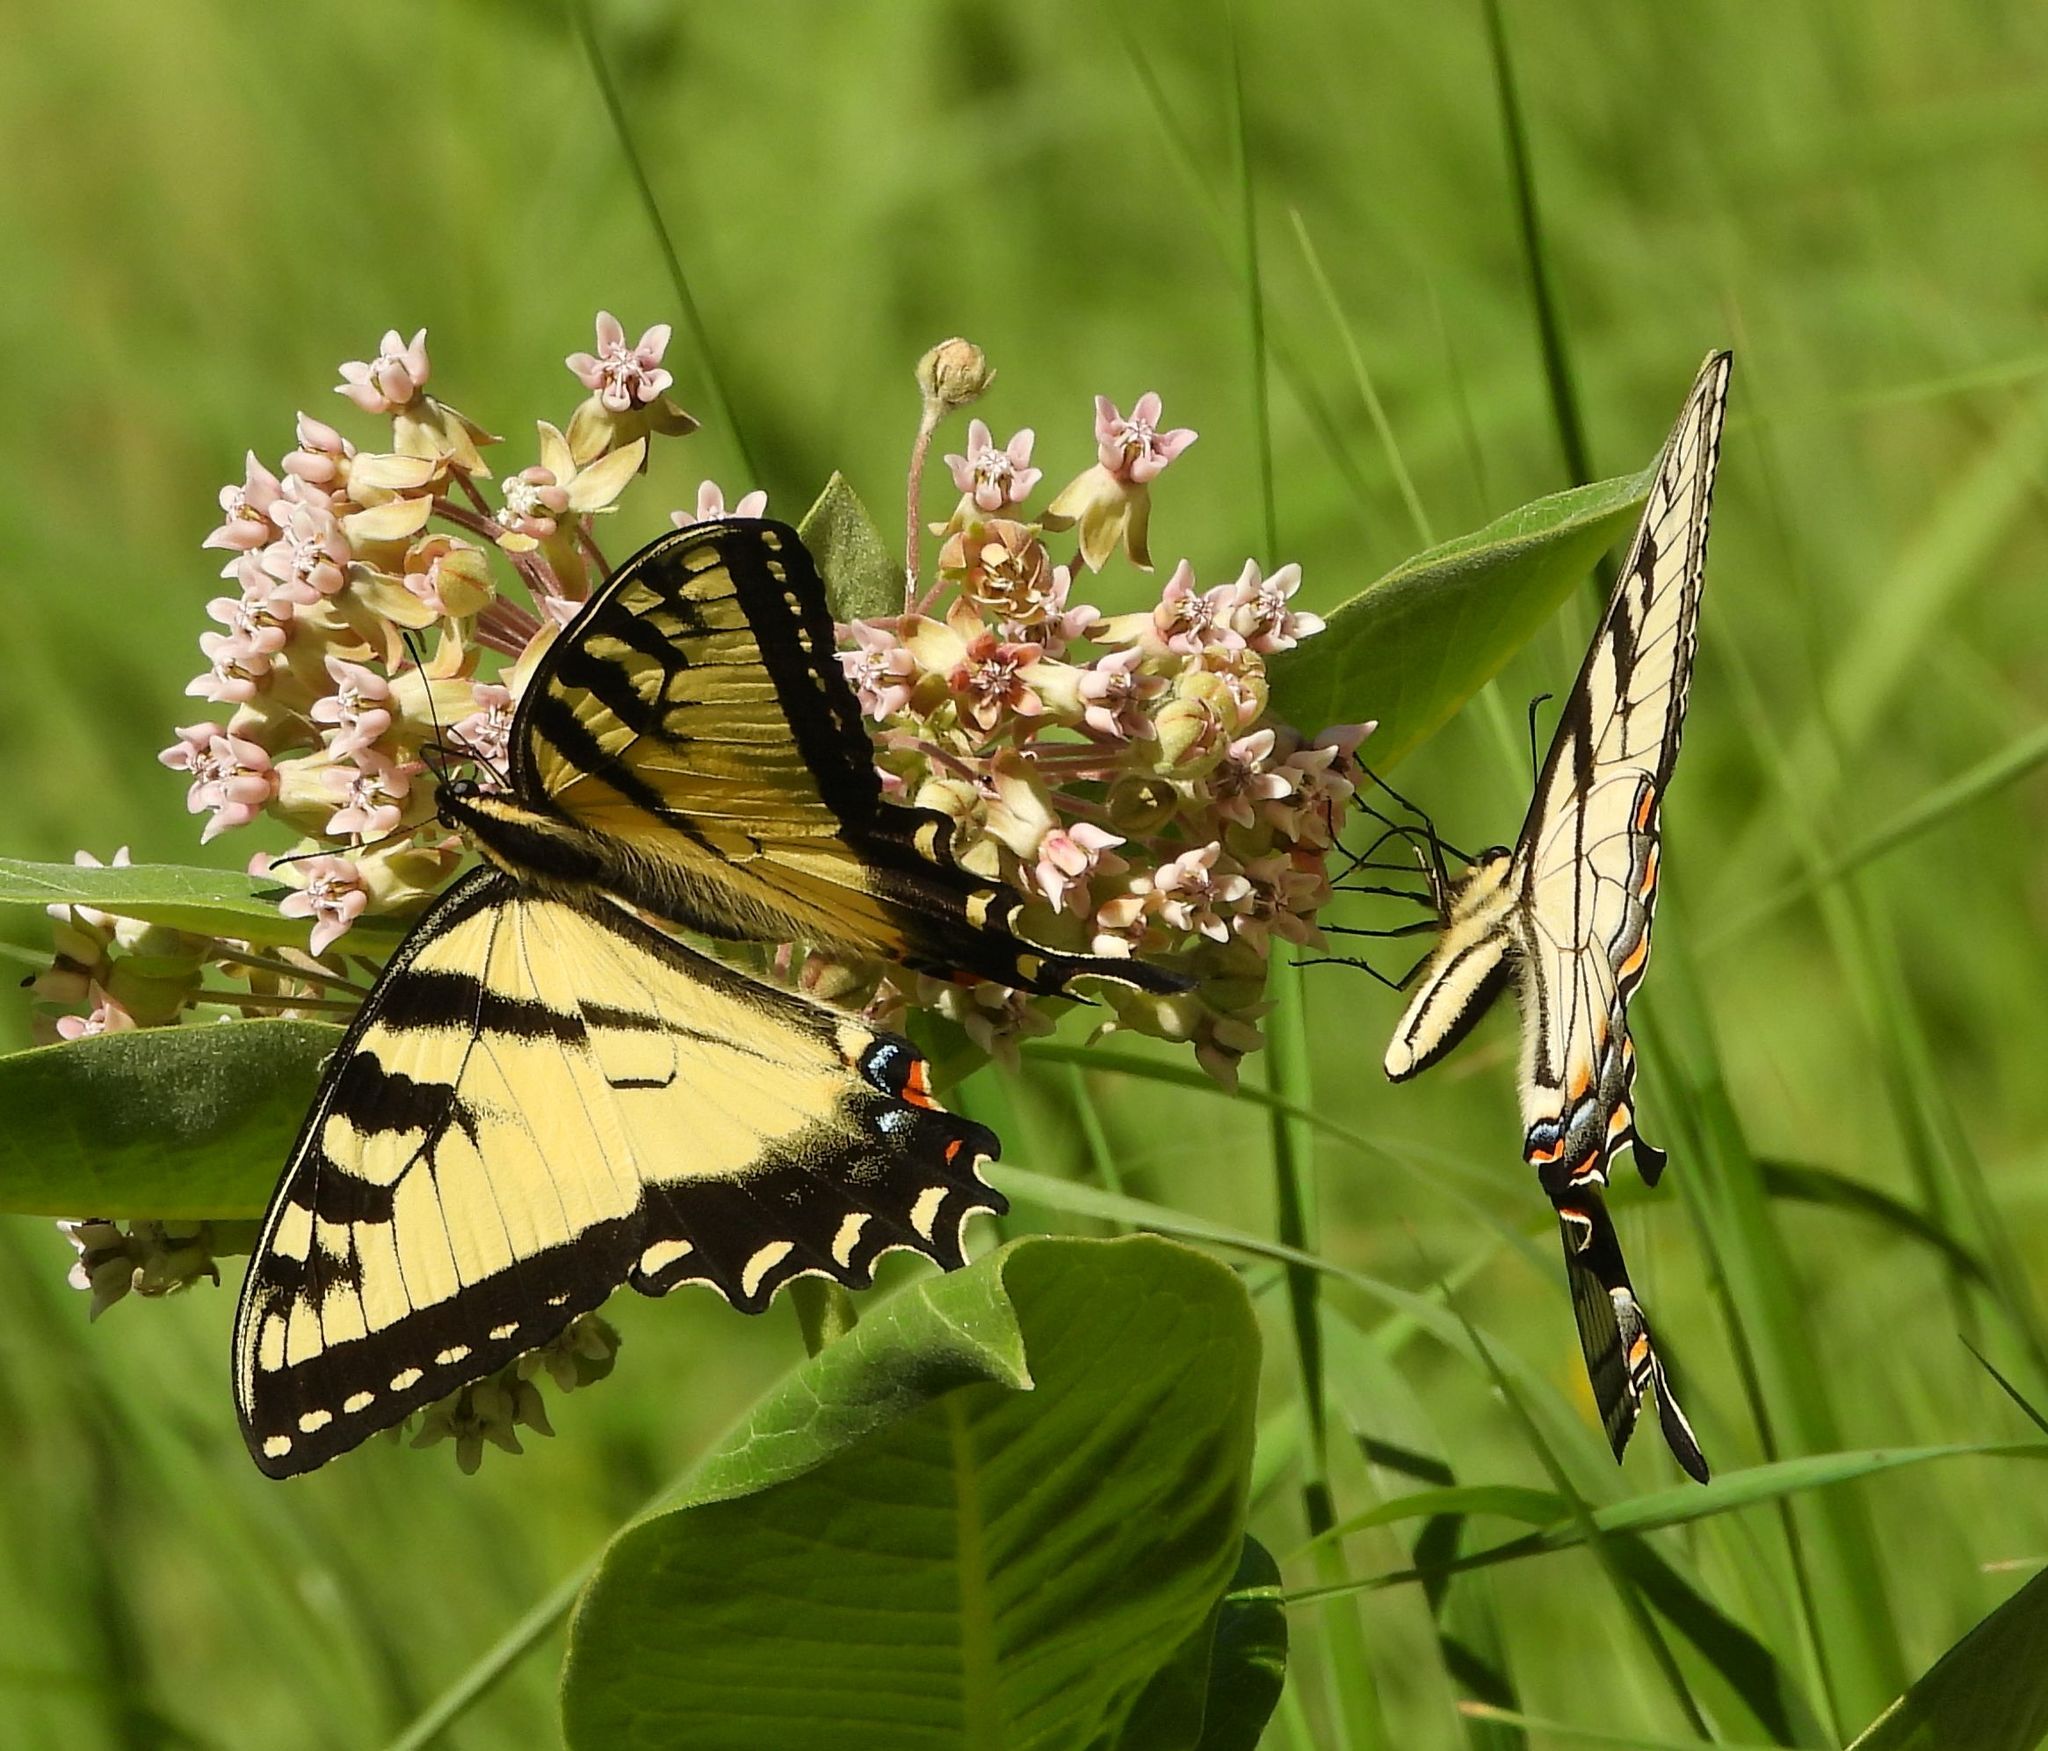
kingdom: Animalia
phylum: Arthropoda
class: Insecta
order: Lepidoptera
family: Papilionidae
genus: Papilio
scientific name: Papilio
